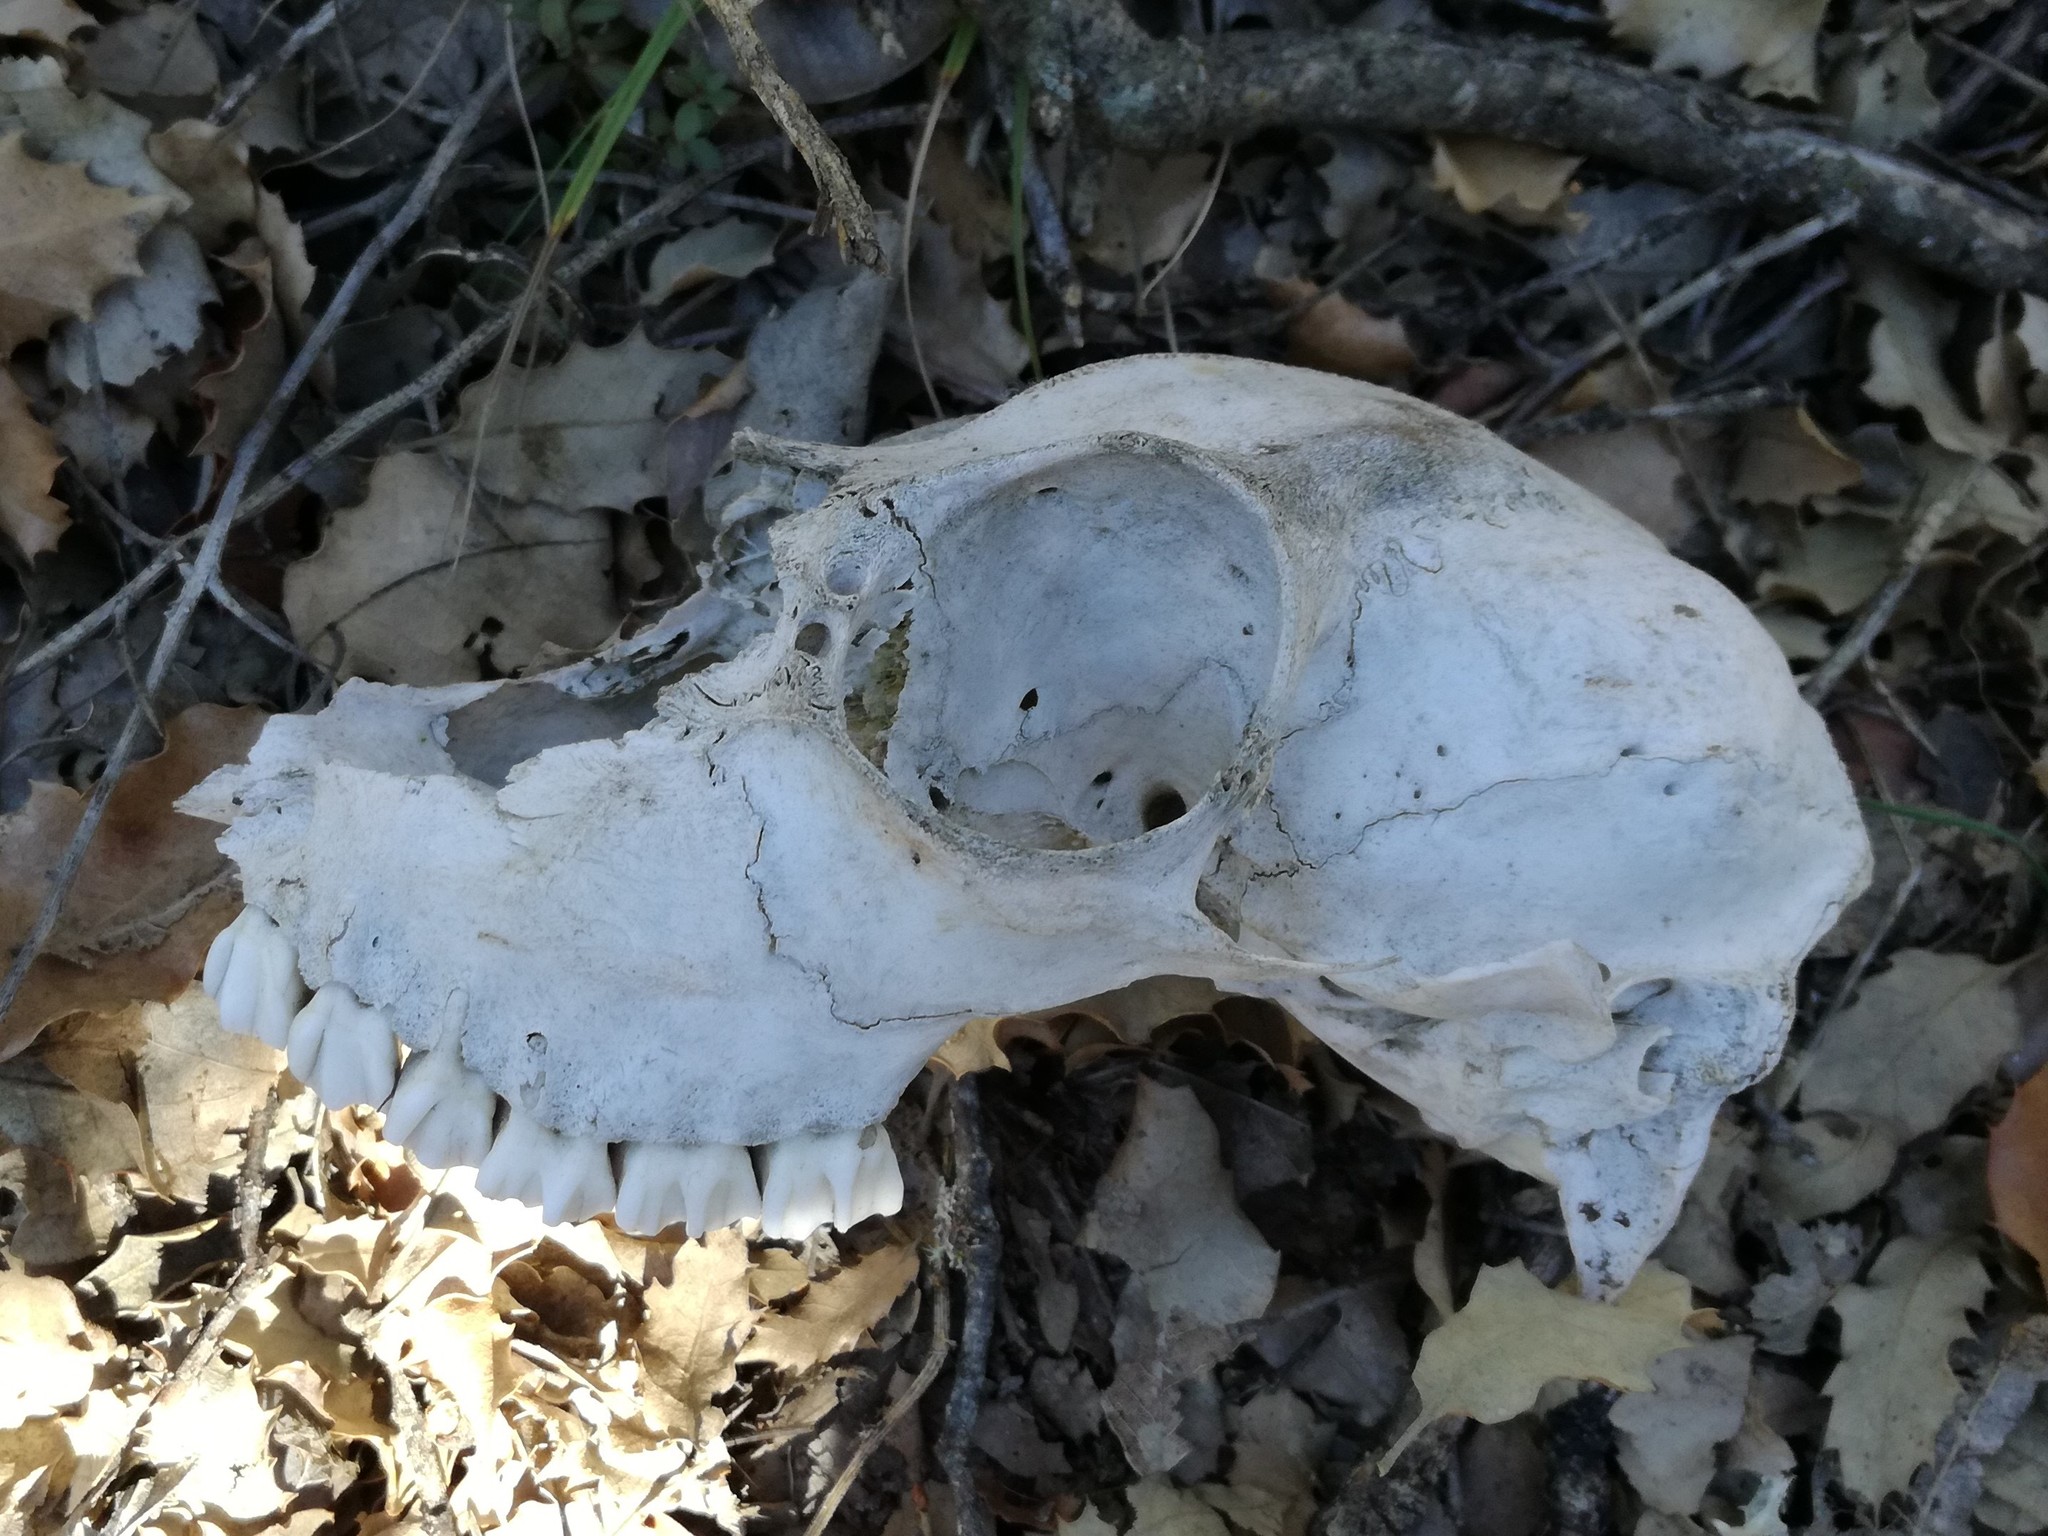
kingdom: Animalia
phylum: Chordata
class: Mammalia
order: Artiodactyla
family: Cervidae
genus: Capreolus
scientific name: Capreolus capreolus
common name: Western roe deer
